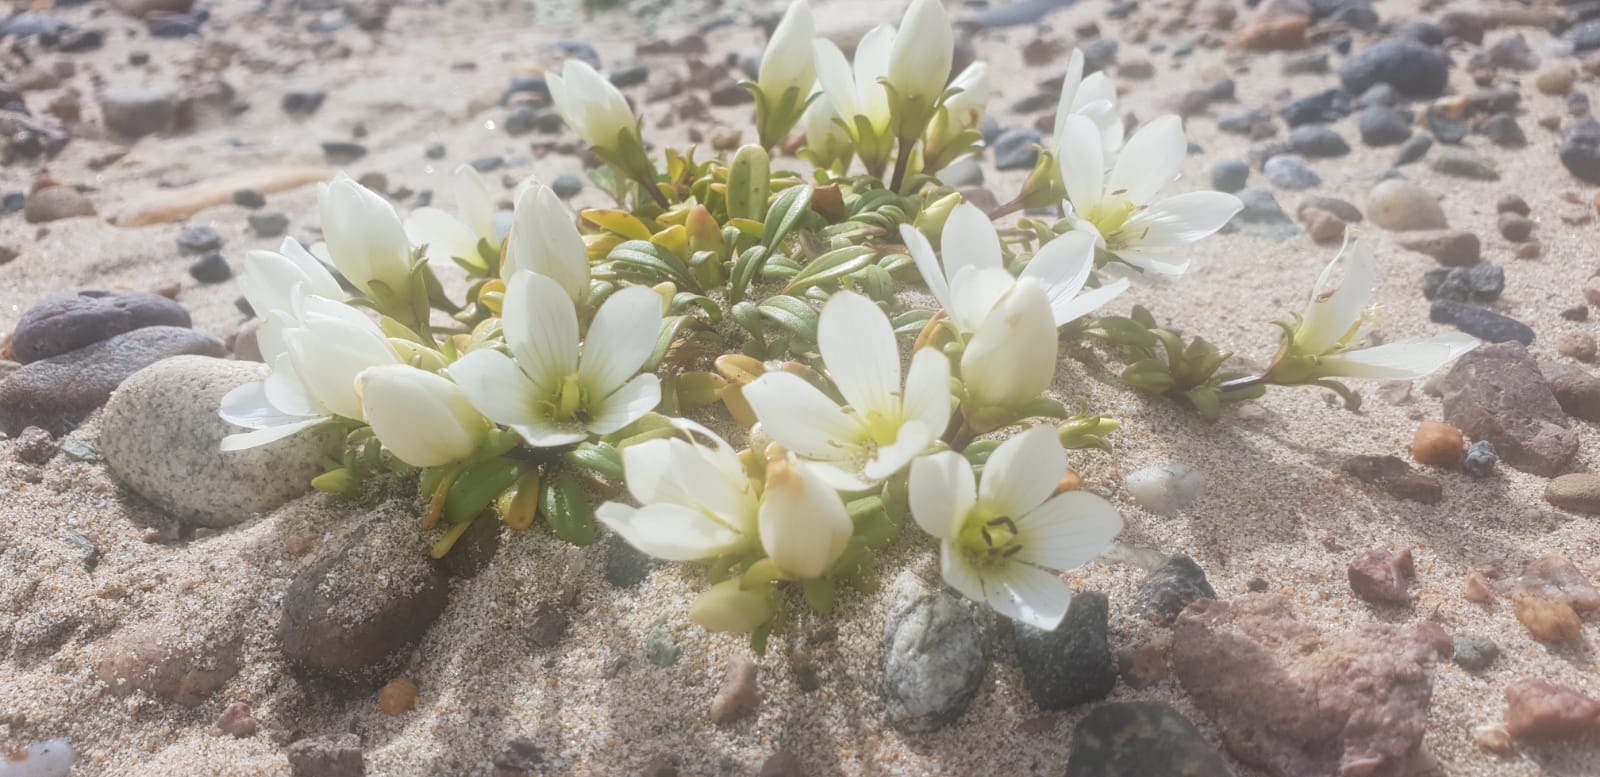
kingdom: Plantae
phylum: Tracheophyta
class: Magnoliopsida
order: Gentianales
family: Gentianaceae
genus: Gentianella
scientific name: Gentianella saxosa
